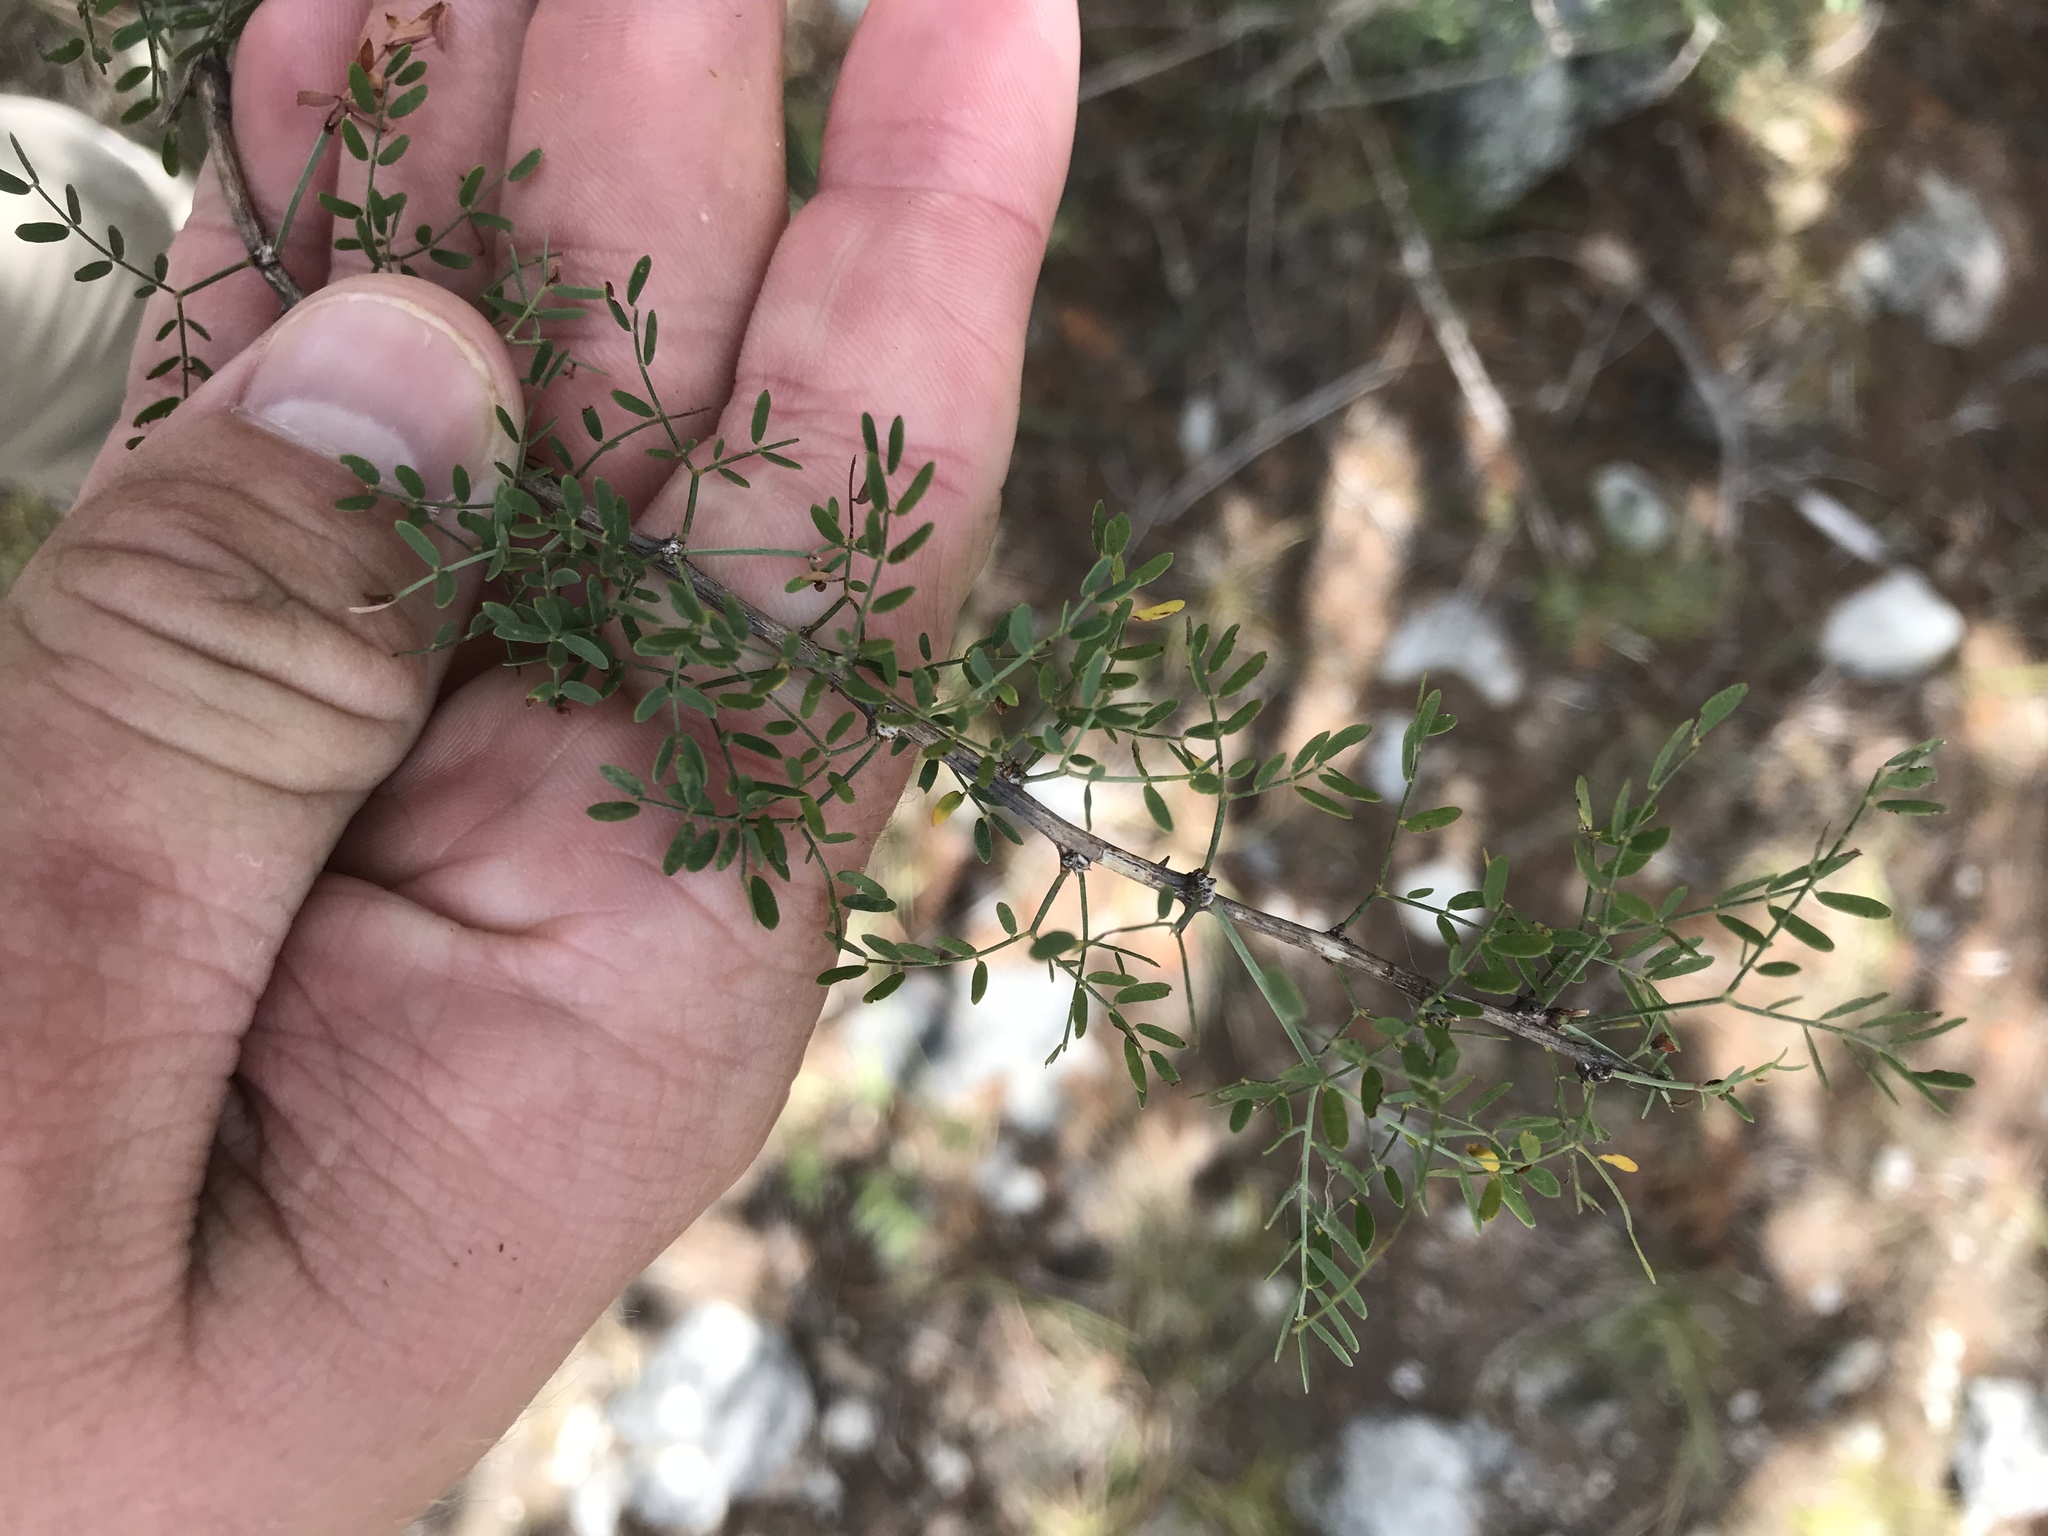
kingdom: Plantae
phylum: Tracheophyta
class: Magnoliopsida
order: Fabales
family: Fabaceae
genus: Mimosa
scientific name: Mimosa borealis
